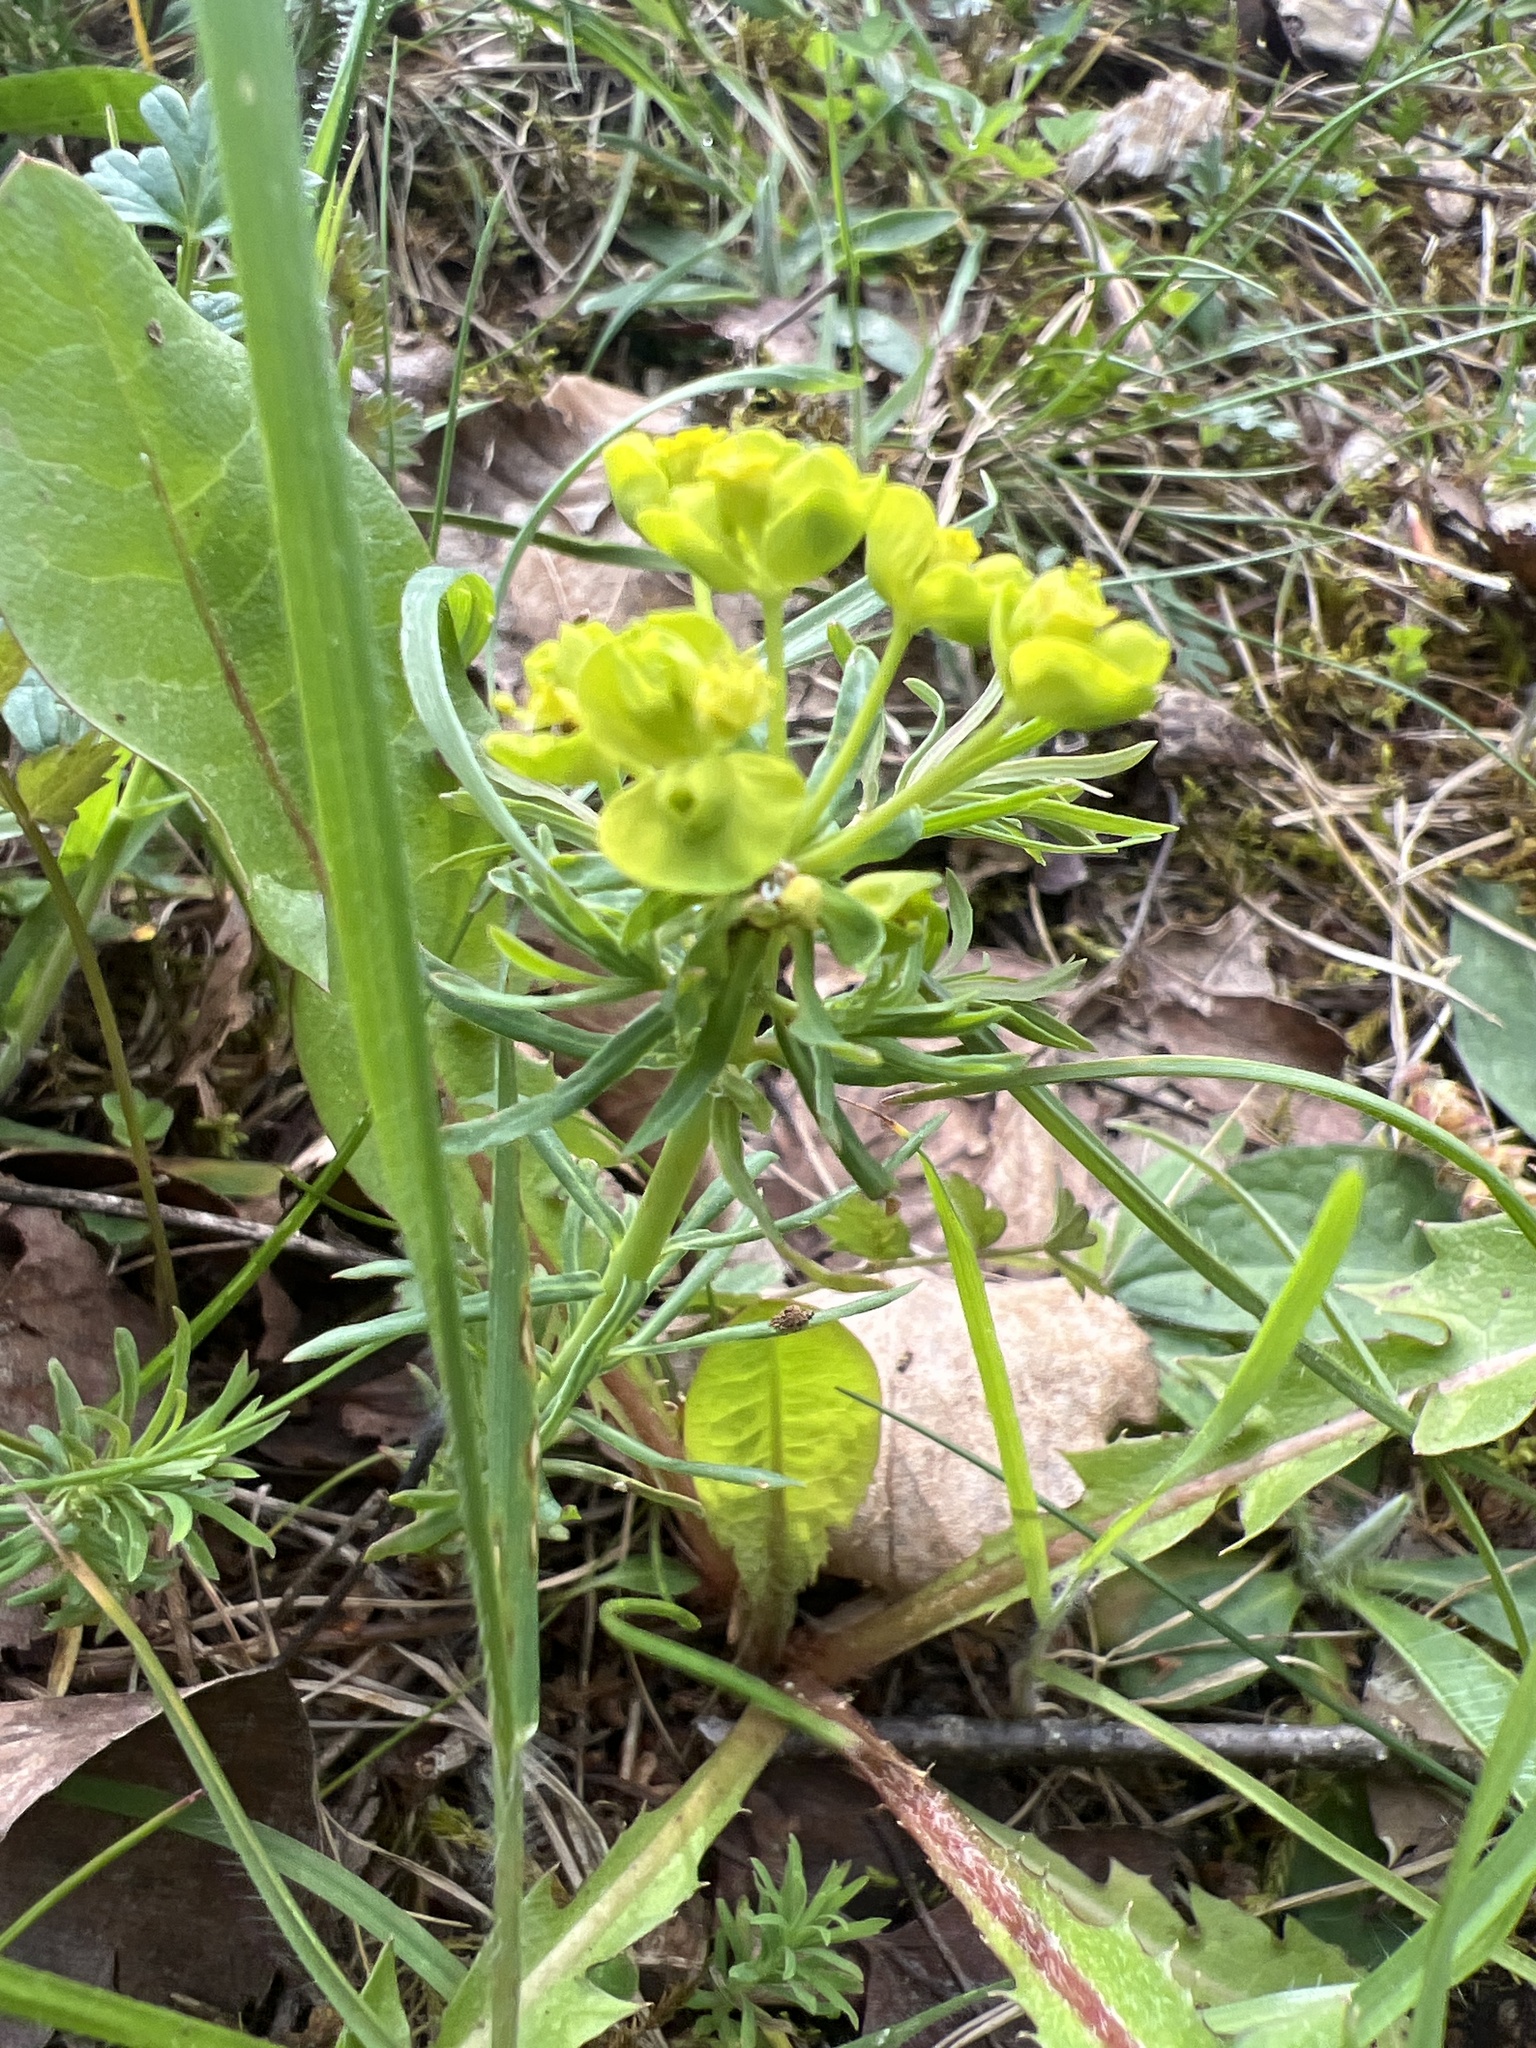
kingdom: Plantae
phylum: Tracheophyta
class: Magnoliopsida
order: Malpighiales
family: Euphorbiaceae
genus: Euphorbia
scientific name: Euphorbia cyparissias
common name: Cypress spurge
